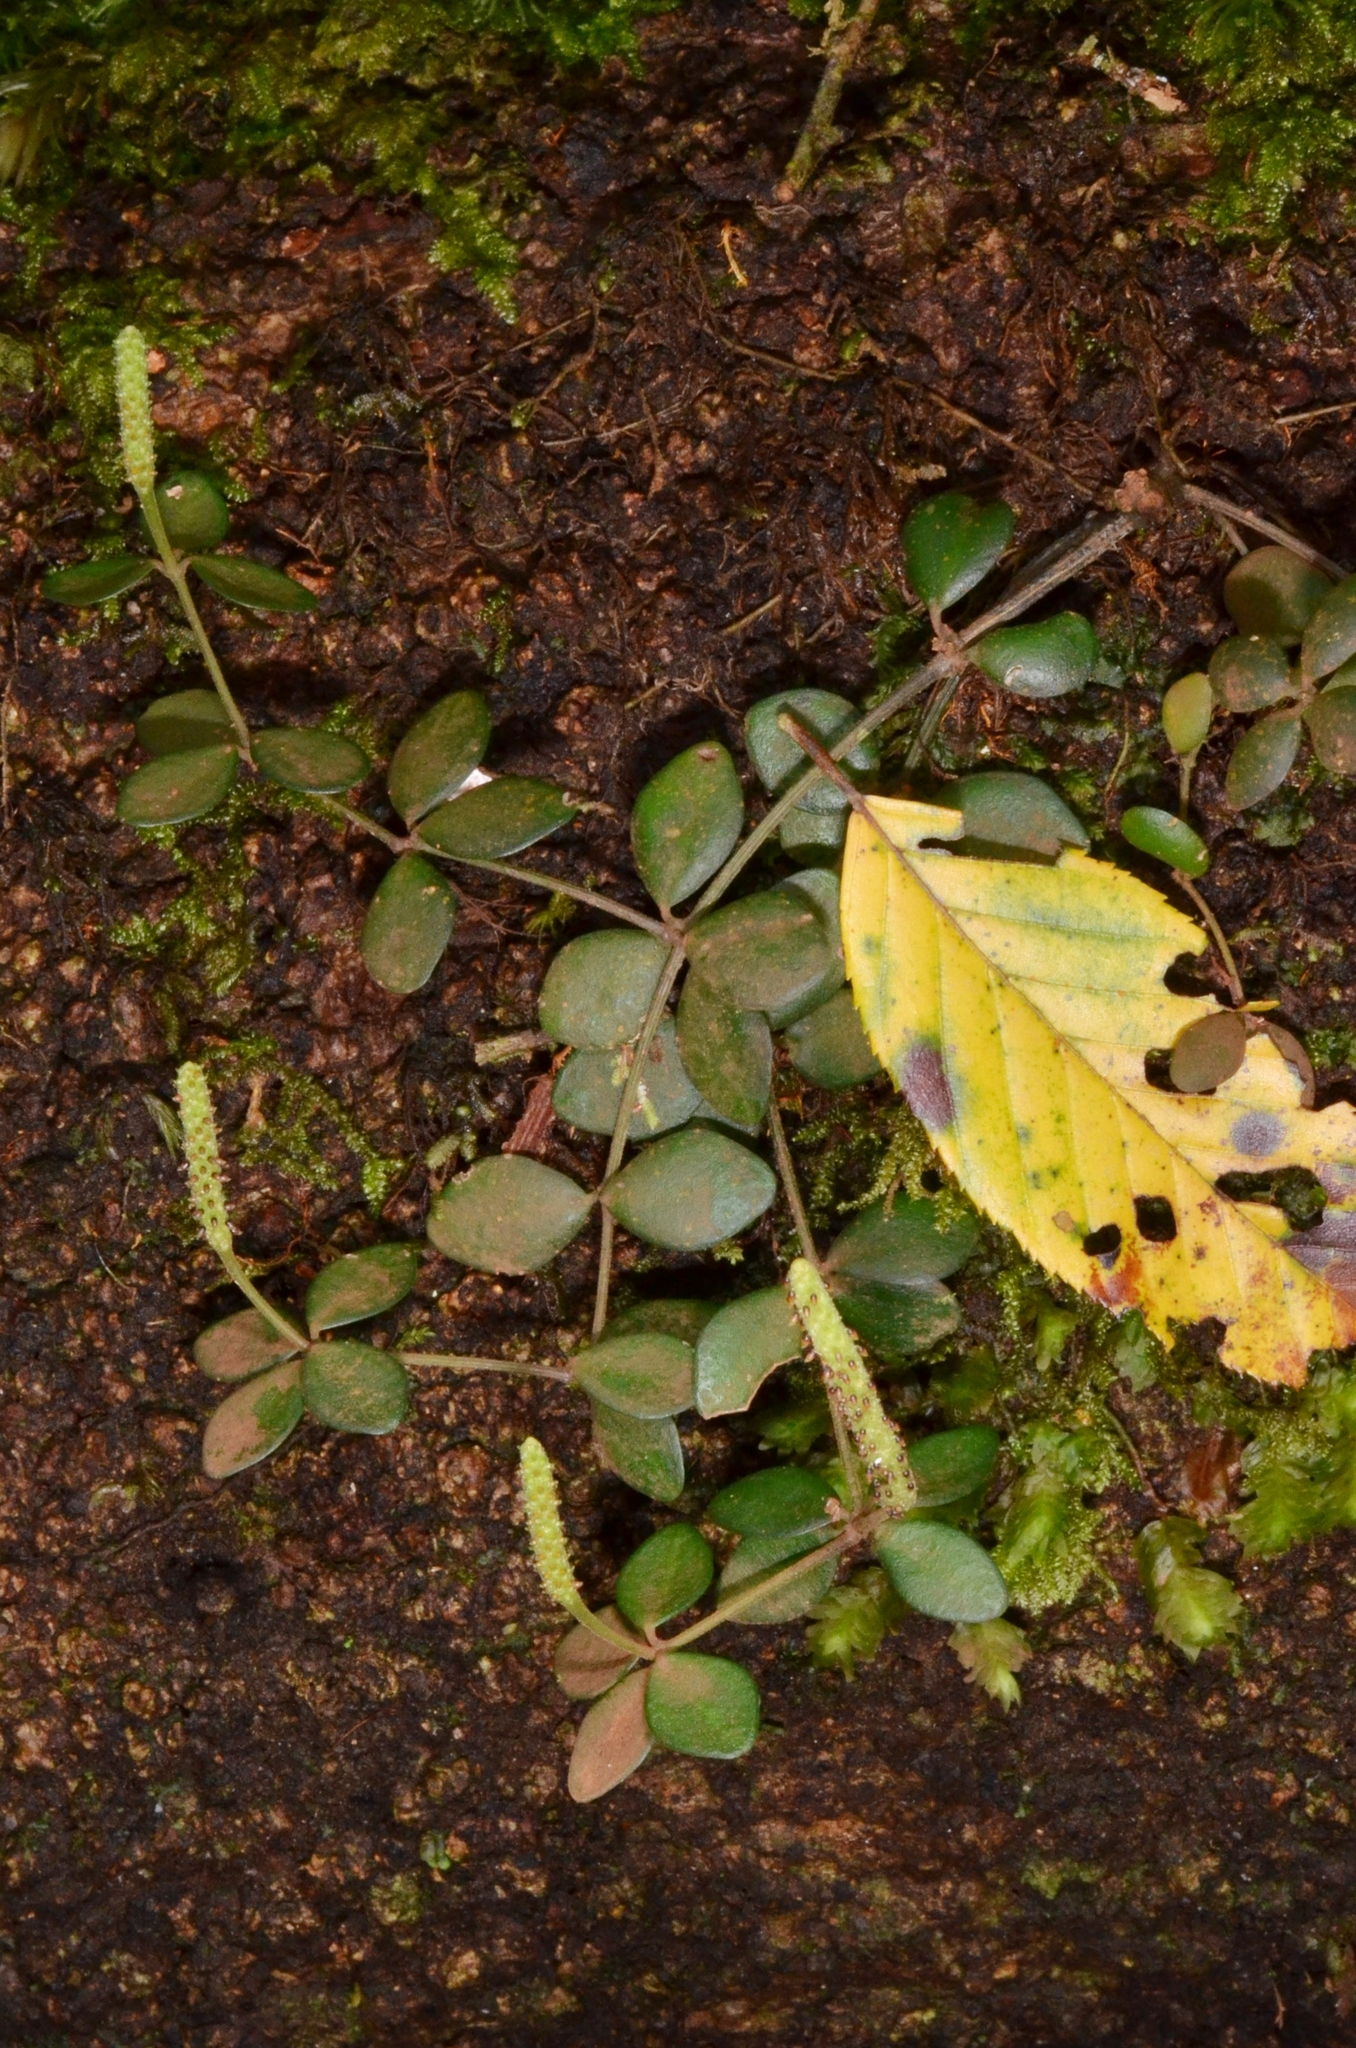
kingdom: Plantae
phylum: Tracheophyta
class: Magnoliopsida
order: Piperales
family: Piperaceae
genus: Peperomia
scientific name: Peperomia tetraphylla
